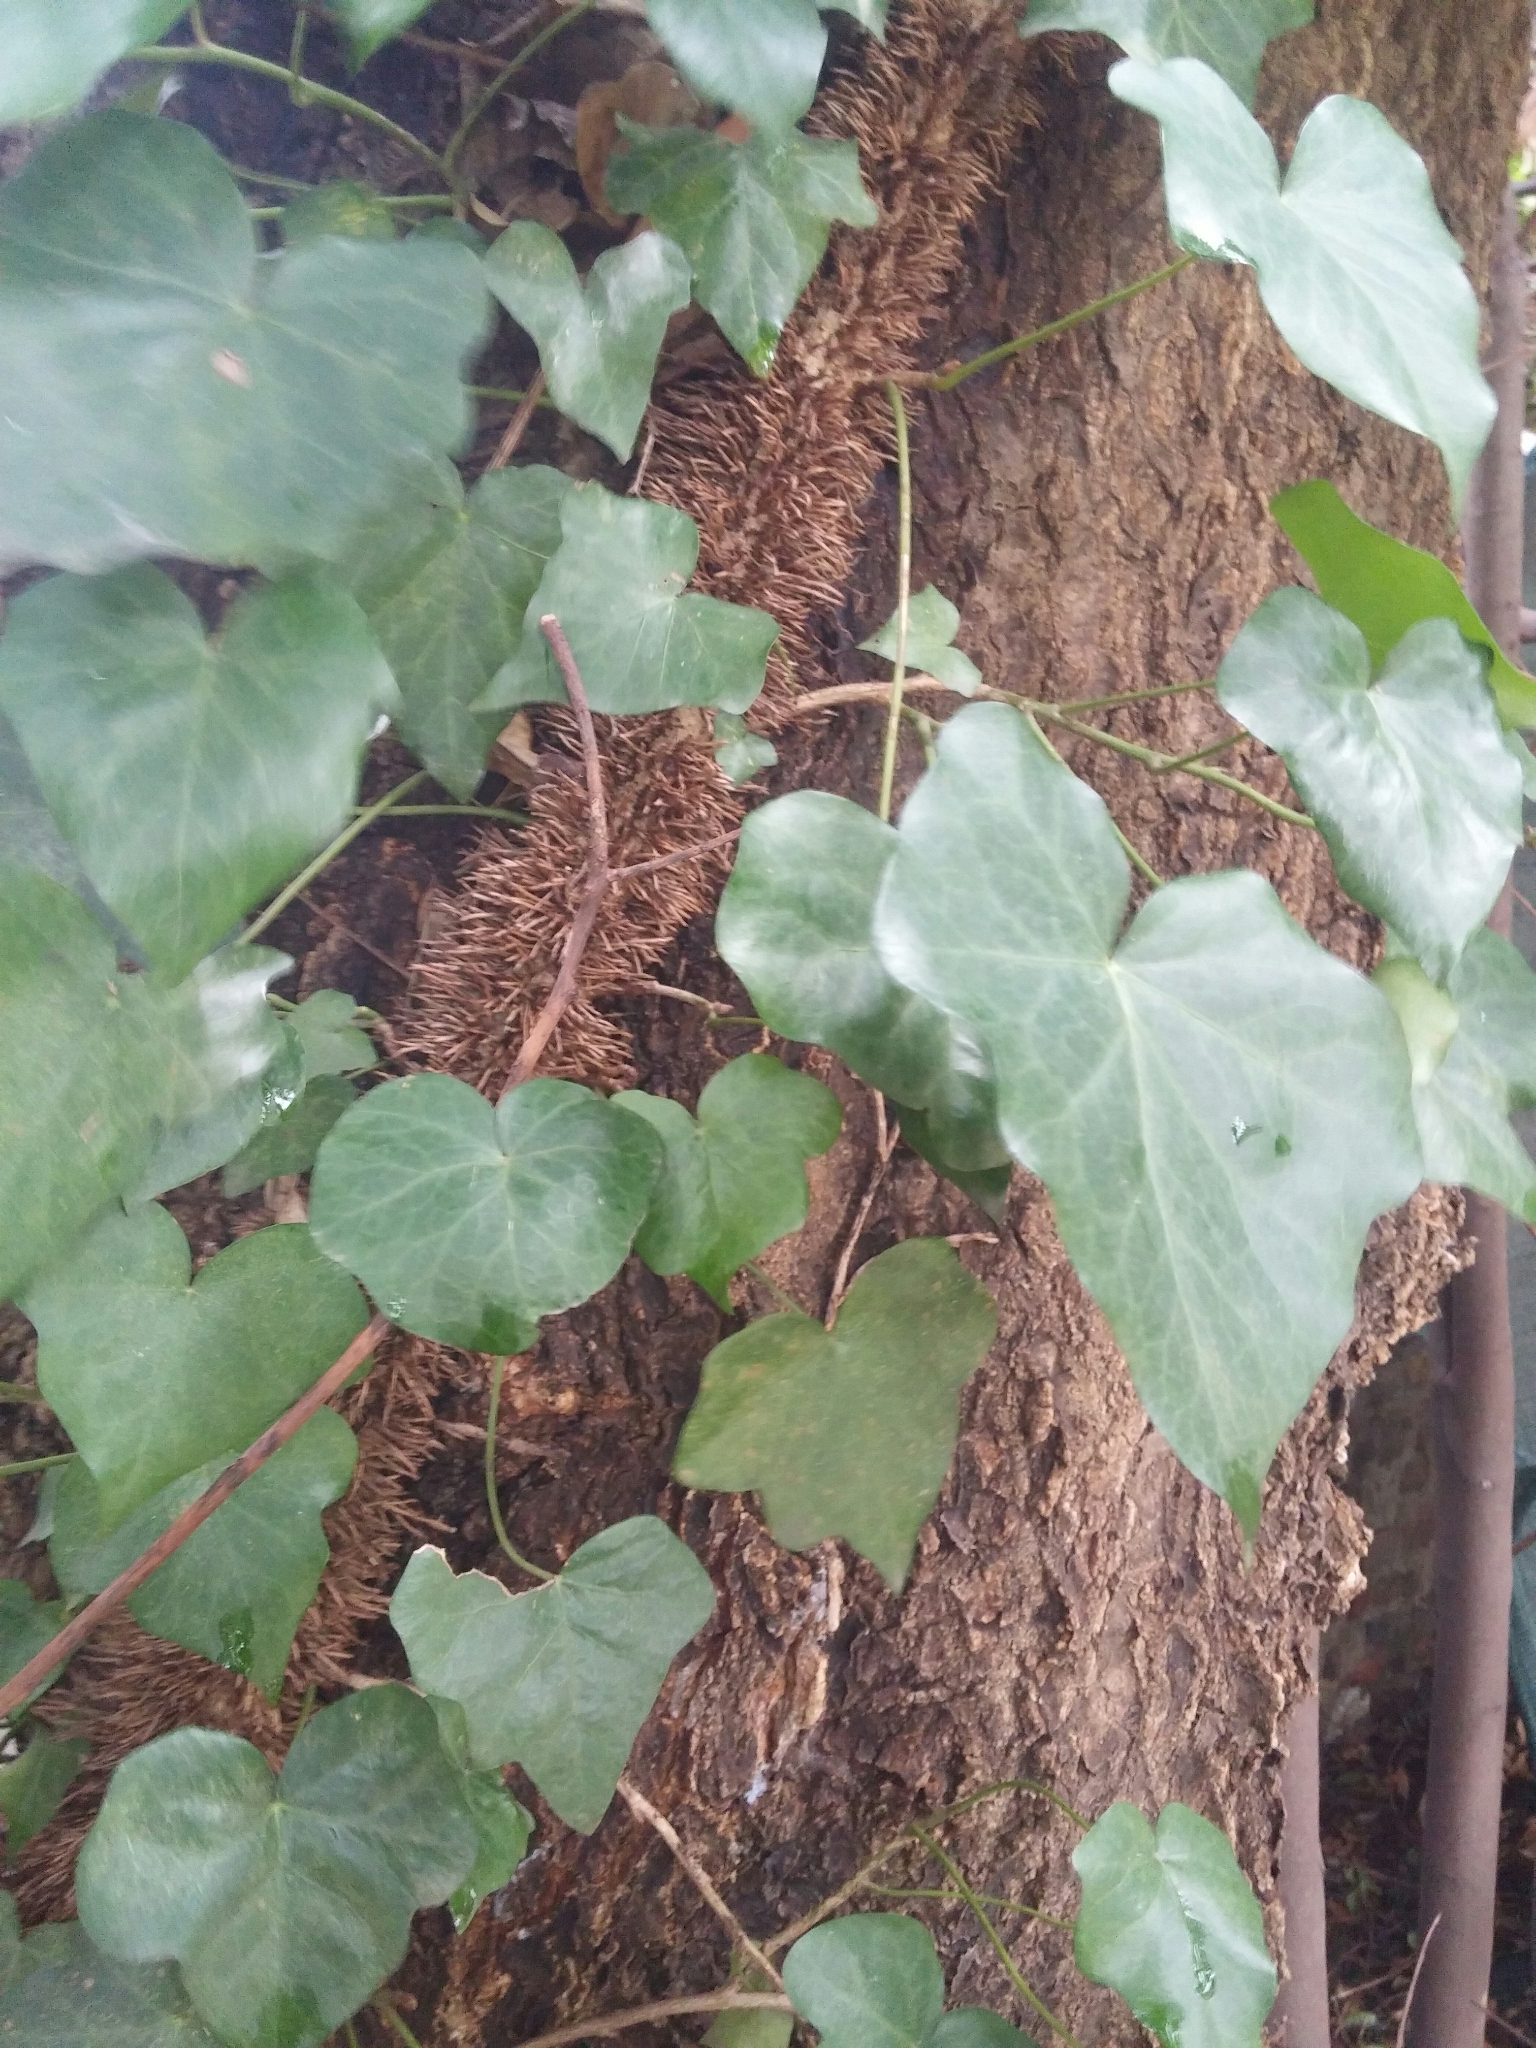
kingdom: Plantae
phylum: Tracheophyta
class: Magnoliopsida
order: Apiales
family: Araliaceae
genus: Hedera
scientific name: Hedera helix
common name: Ivy
